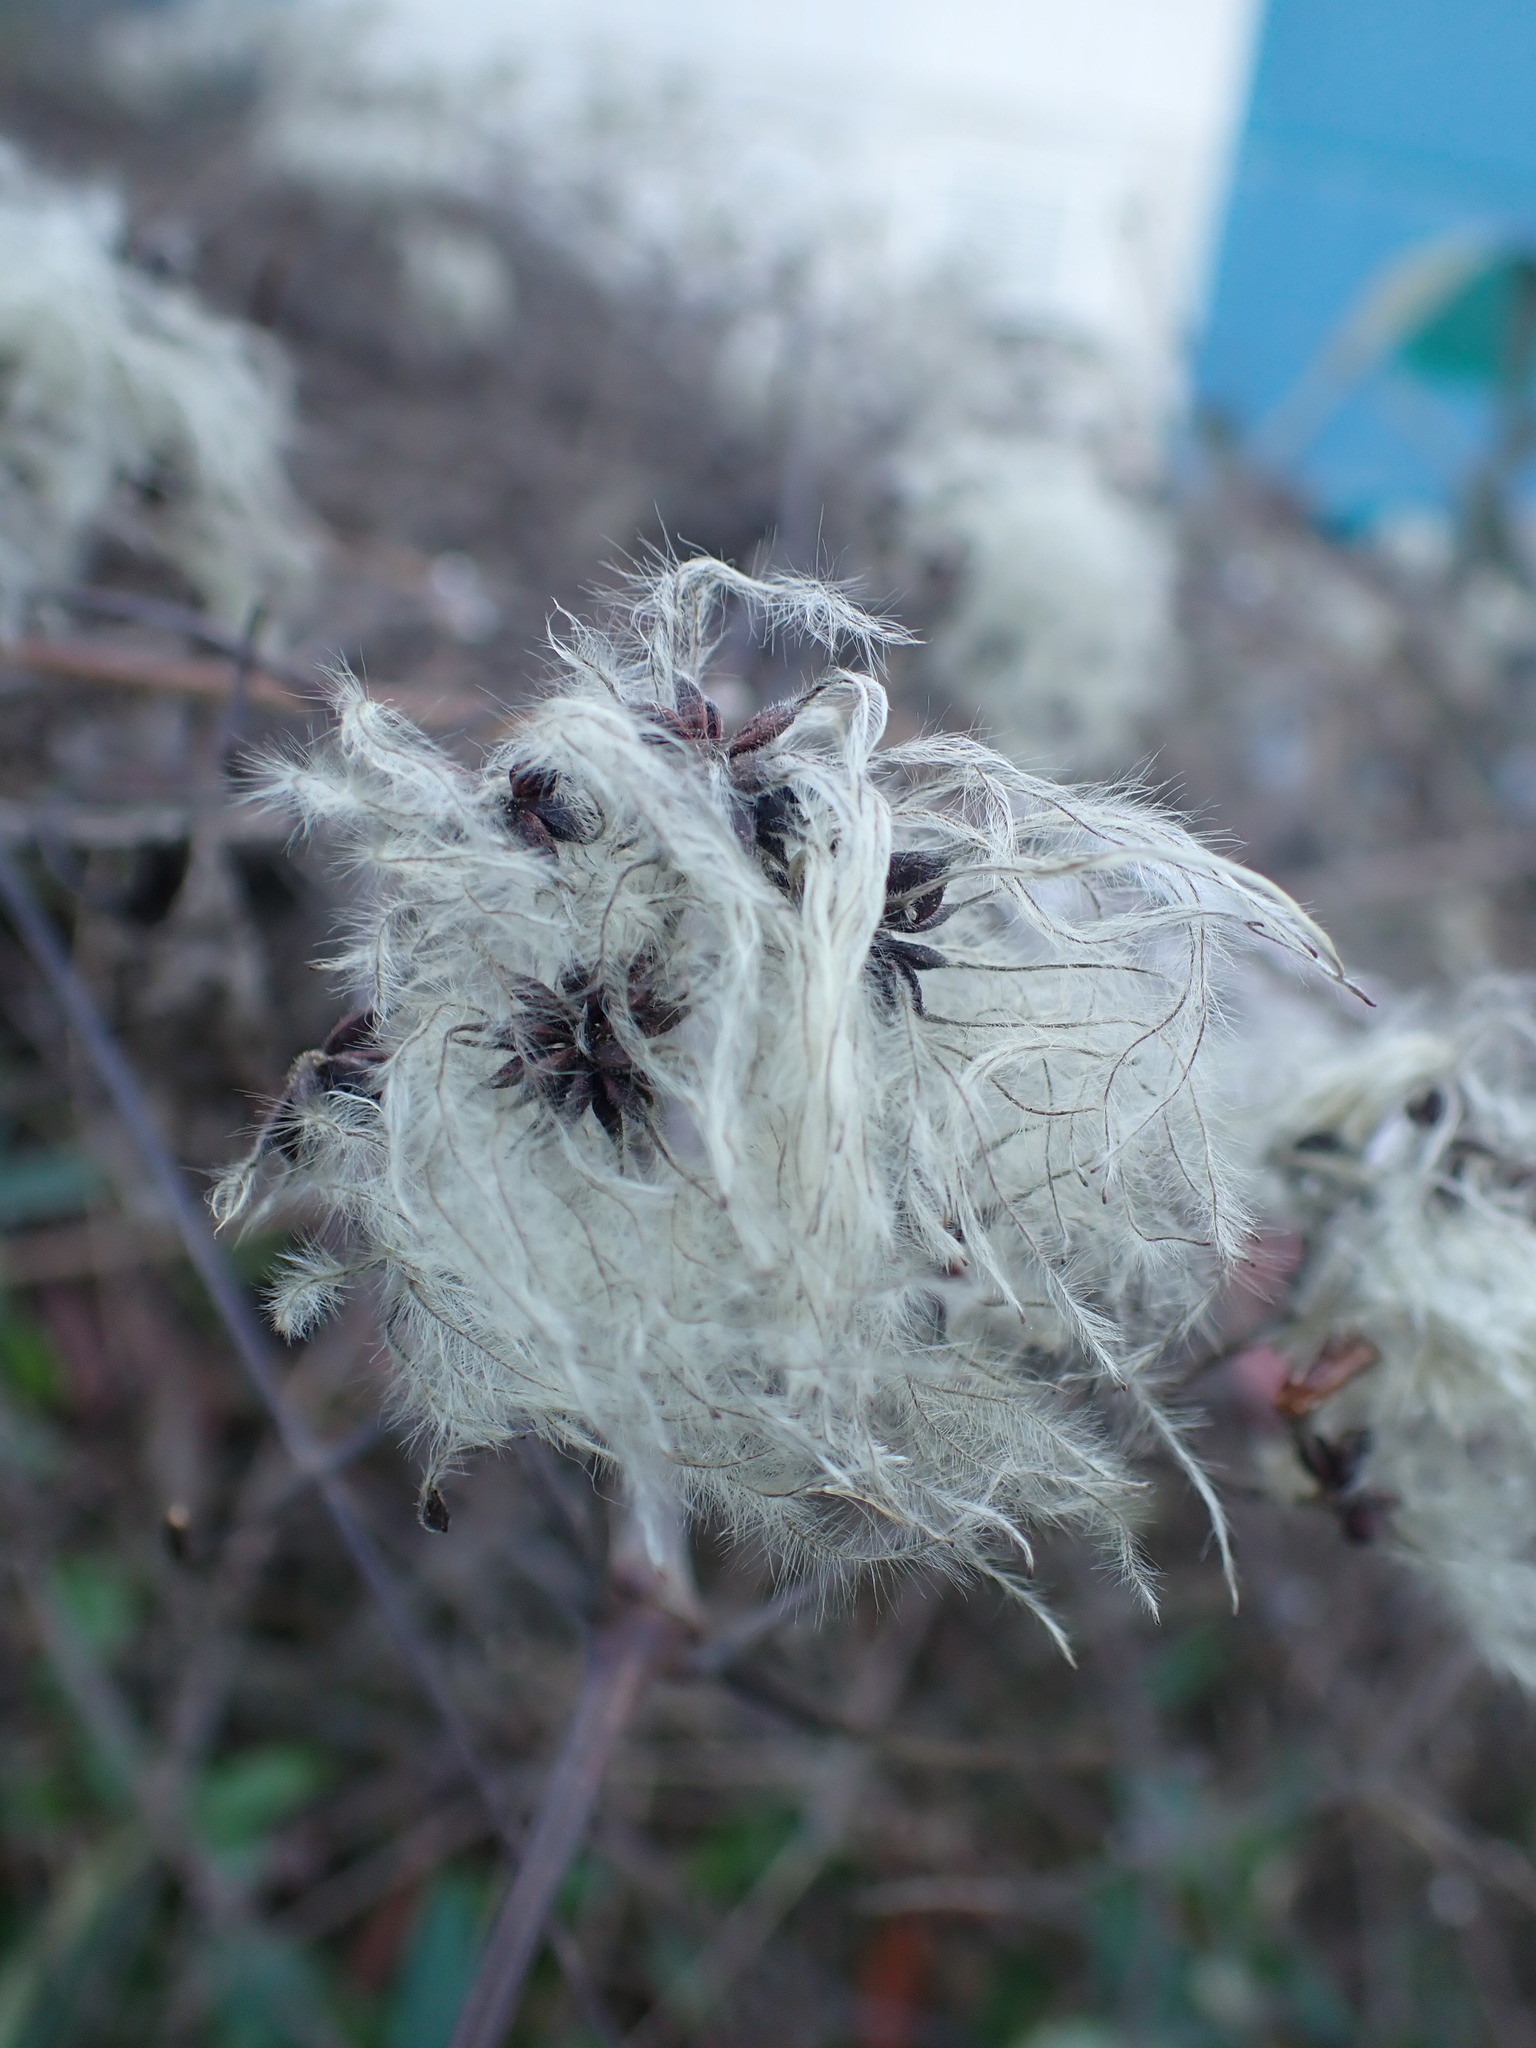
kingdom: Plantae
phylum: Tracheophyta
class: Magnoliopsida
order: Ranunculales
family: Ranunculaceae
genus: Clematis
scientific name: Clematis vitalba
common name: Evergreen clematis
